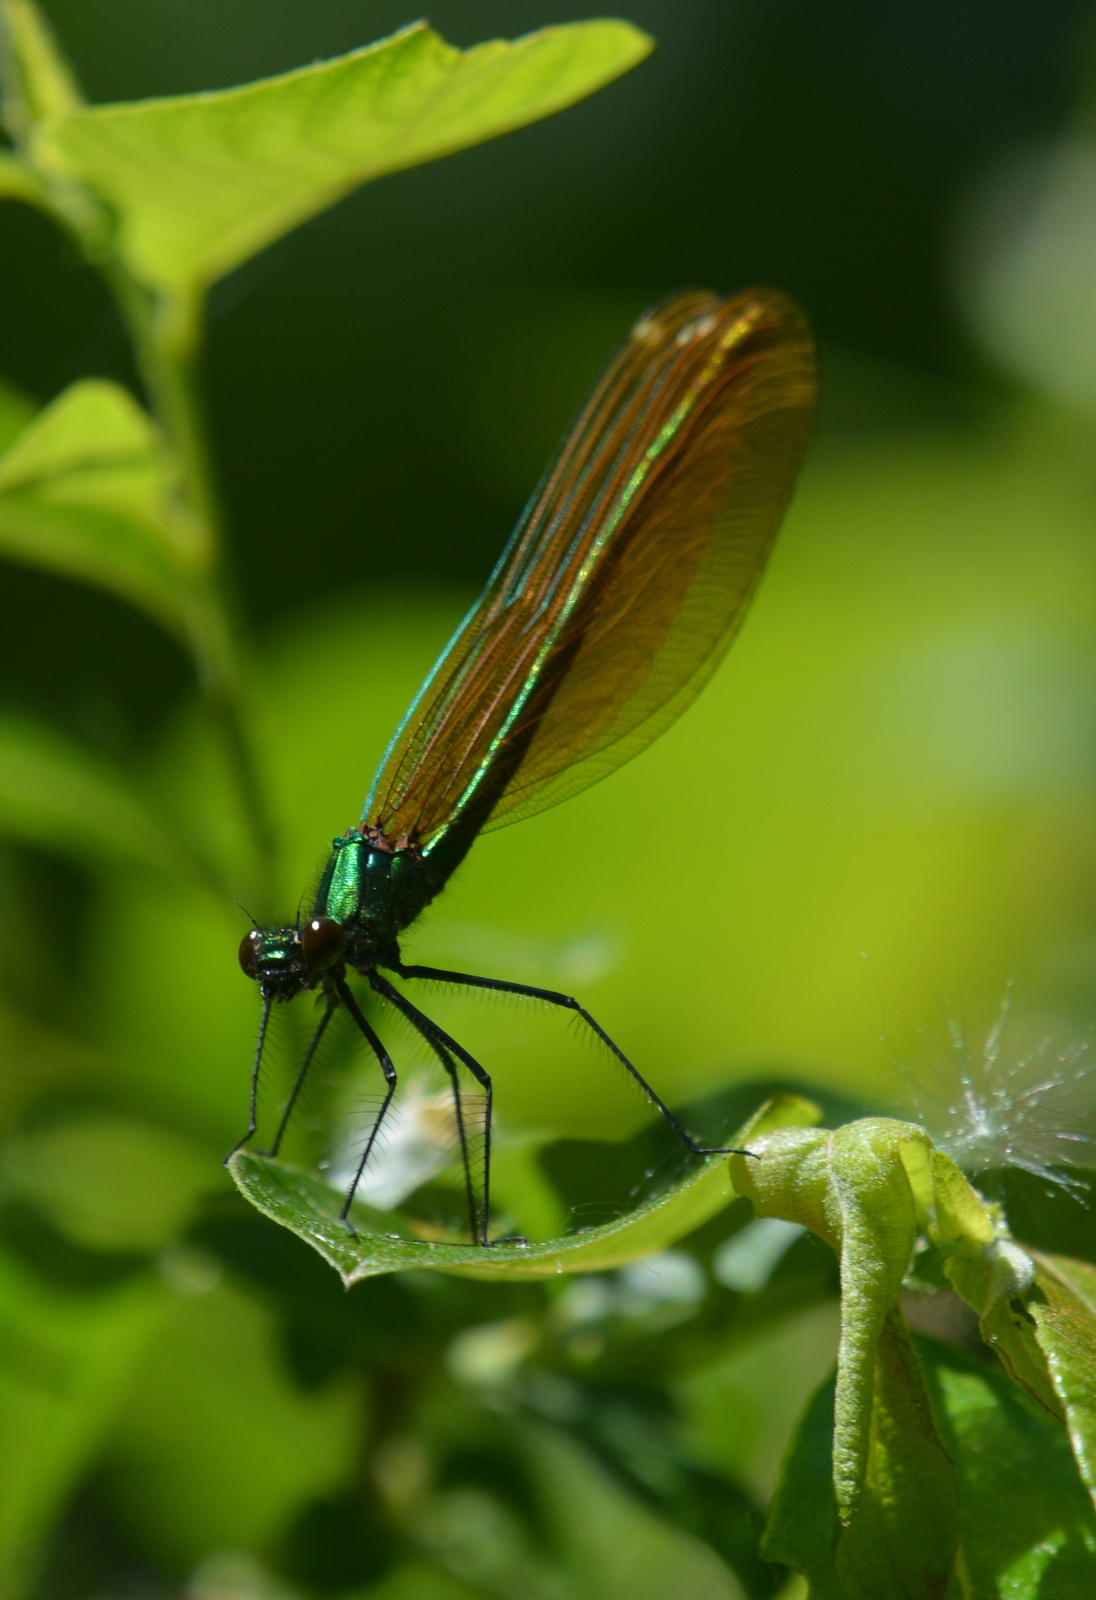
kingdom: Animalia
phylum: Arthropoda
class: Insecta
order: Odonata
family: Calopterygidae
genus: Calopteryx
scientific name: Calopteryx virgo
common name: Beautiful demoiselle
